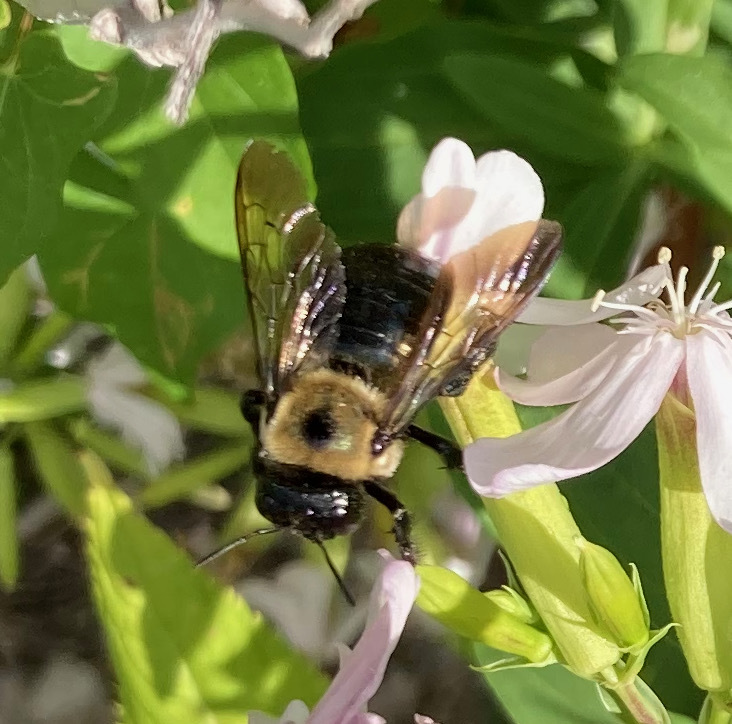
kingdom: Animalia
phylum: Arthropoda
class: Insecta
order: Hymenoptera
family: Apidae
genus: Xylocopa
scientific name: Xylocopa virginica
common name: Carpenter bee
